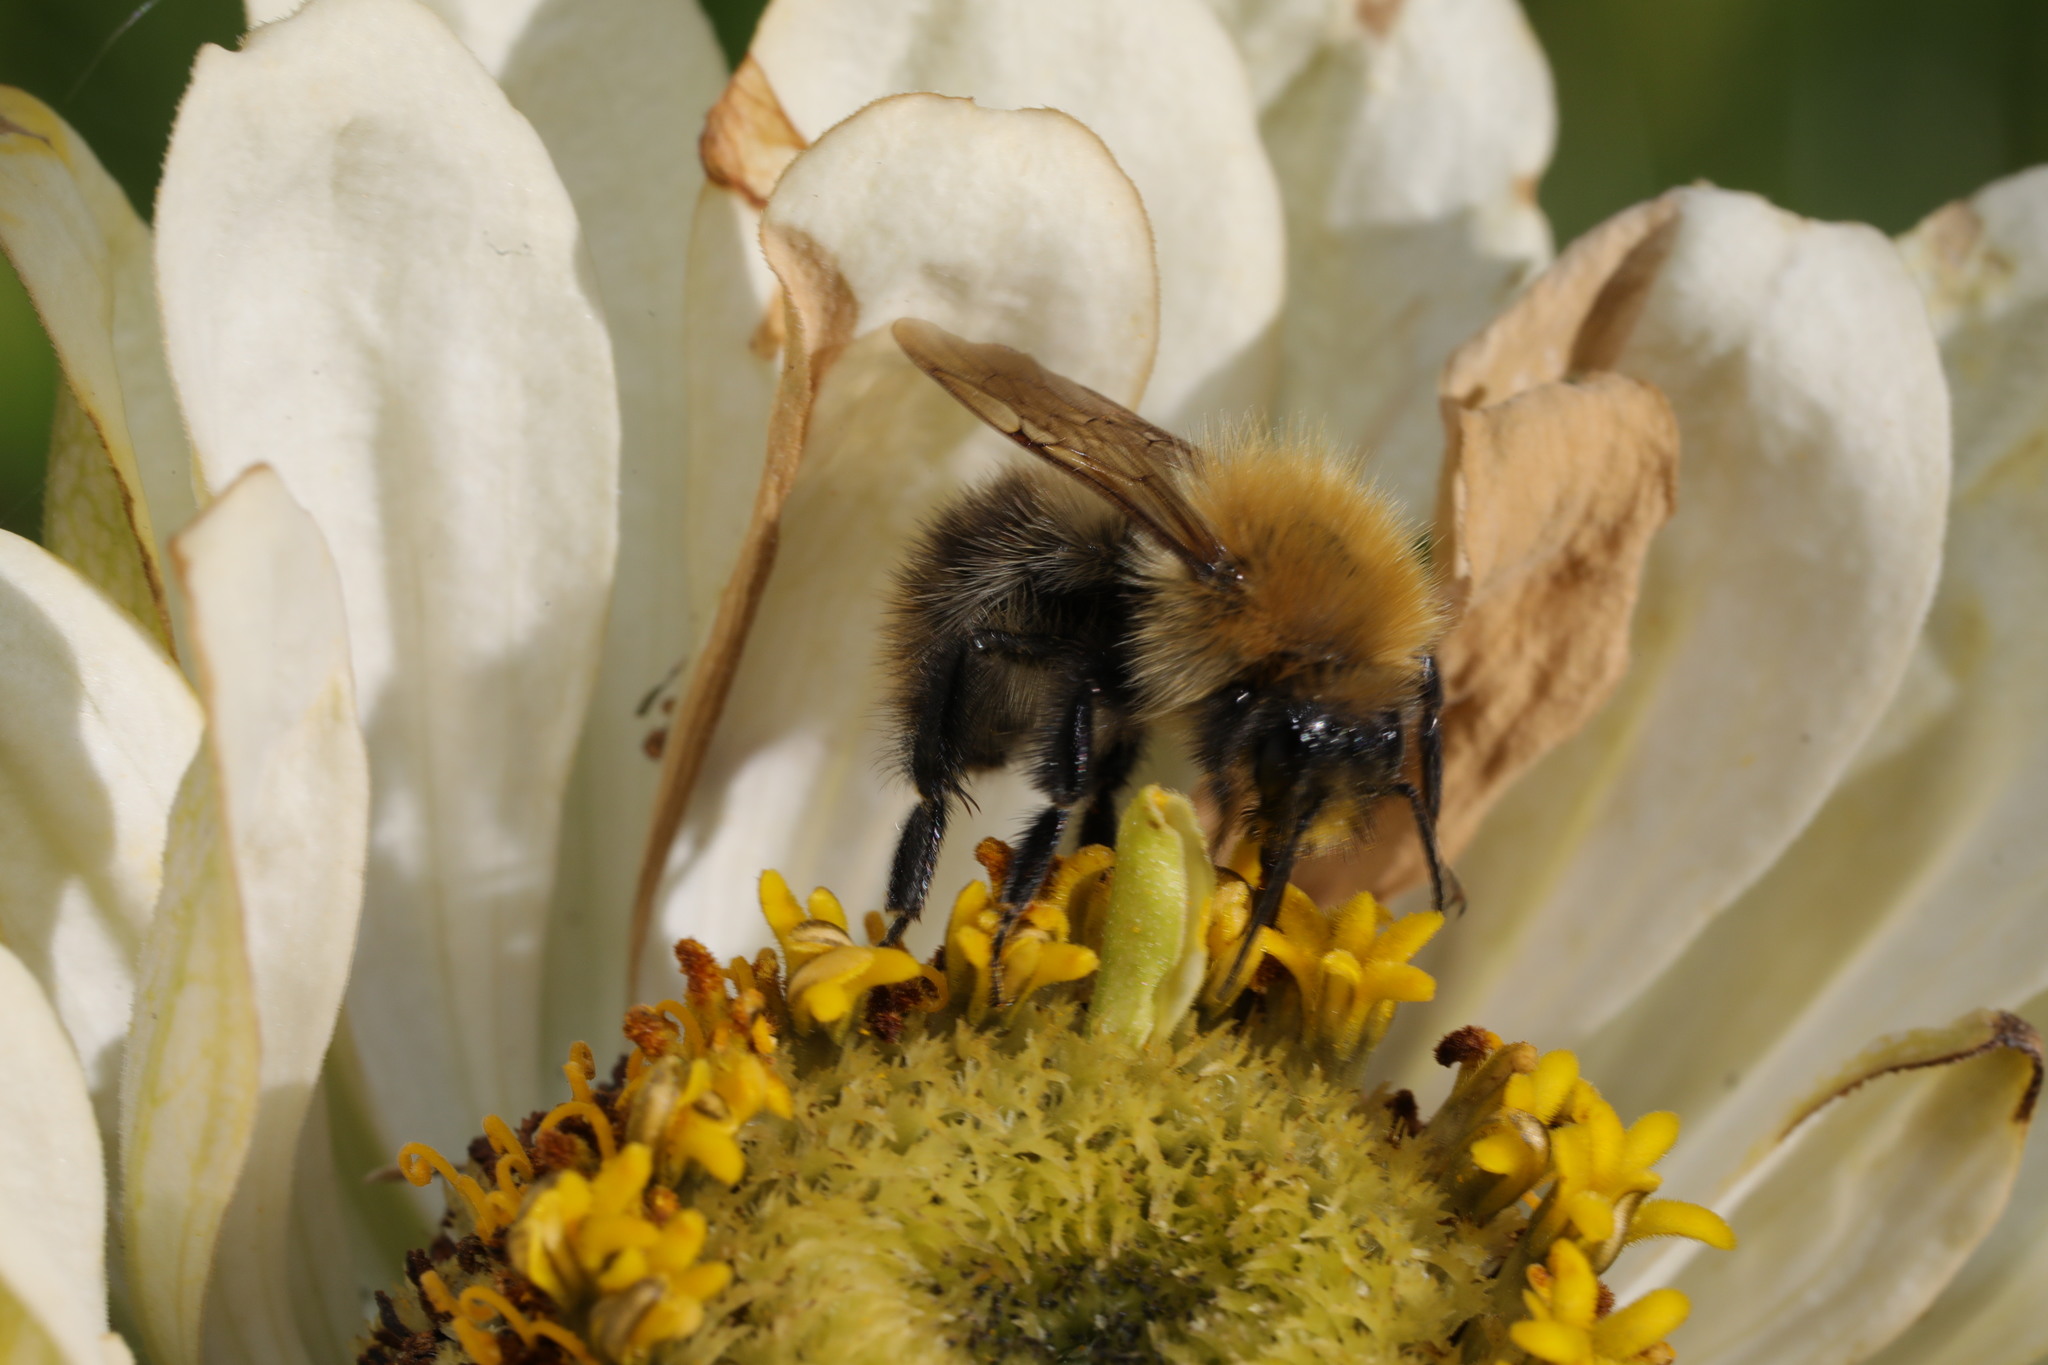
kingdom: Animalia
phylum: Arthropoda
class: Insecta
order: Hymenoptera
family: Apidae
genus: Bombus
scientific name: Bombus pascuorum
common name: Common carder bee
